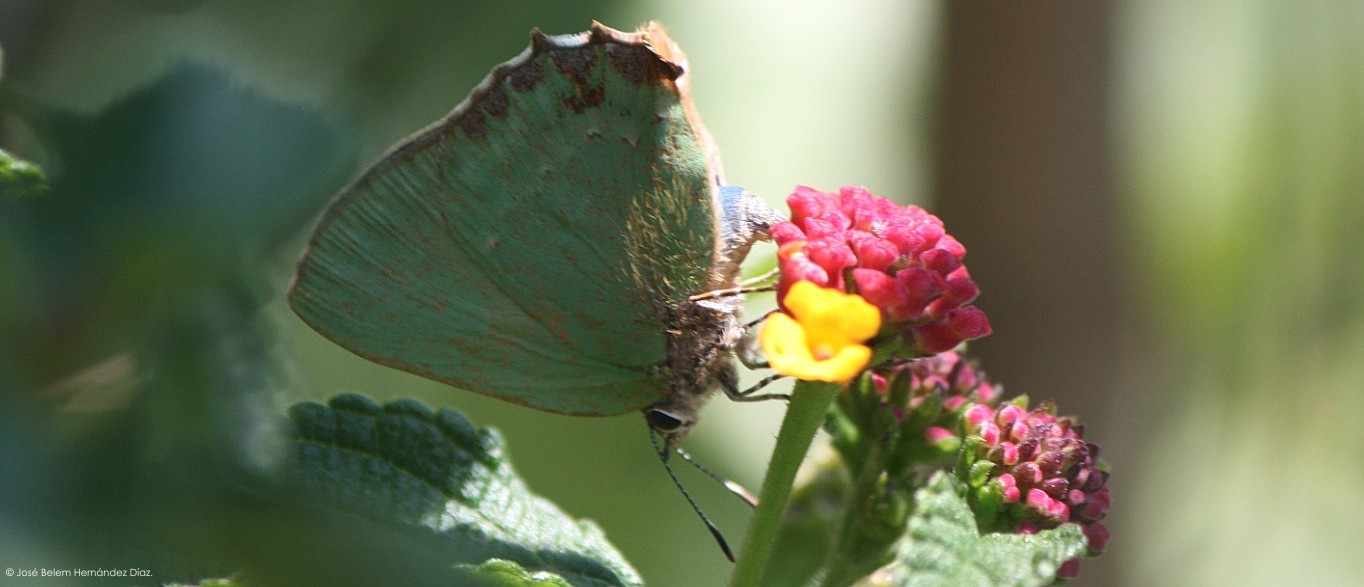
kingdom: Animalia
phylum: Arthropoda
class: Insecta
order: Lepidoptera
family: Lycaenidae
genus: Cyanophrys
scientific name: Cyanophrys longula
